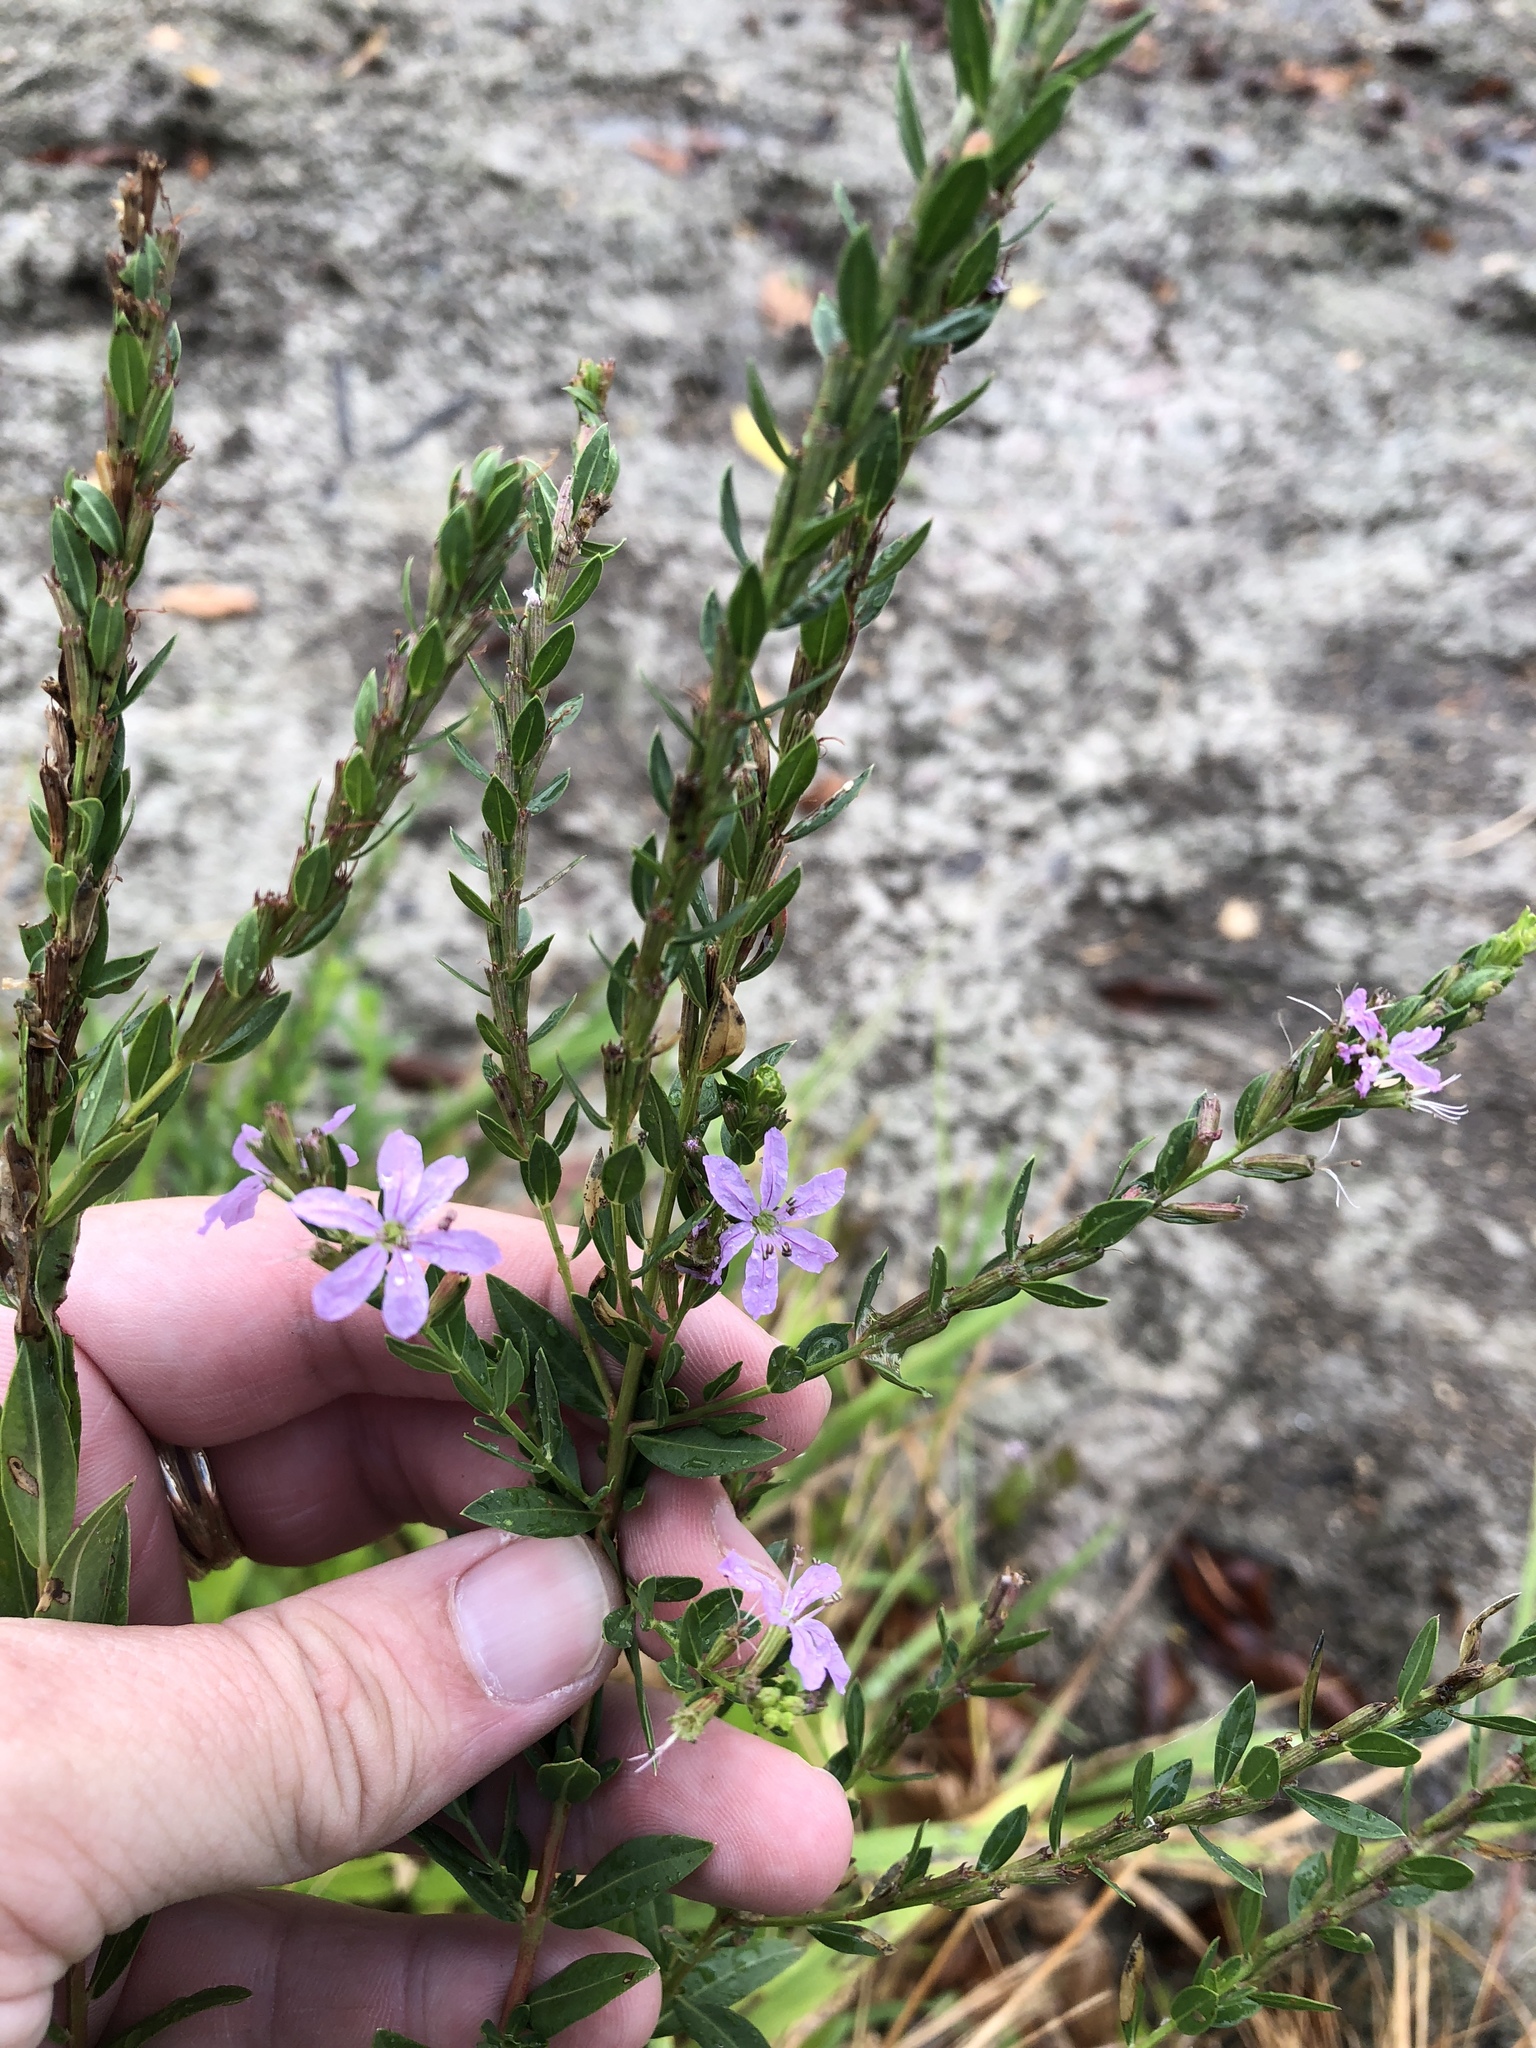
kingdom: Plantae
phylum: Tracheophyta
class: Magnoliopsida
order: Myrtales
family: Lythraceae
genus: Lythrum
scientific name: Lythrum alatum
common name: Winged loosestrife
